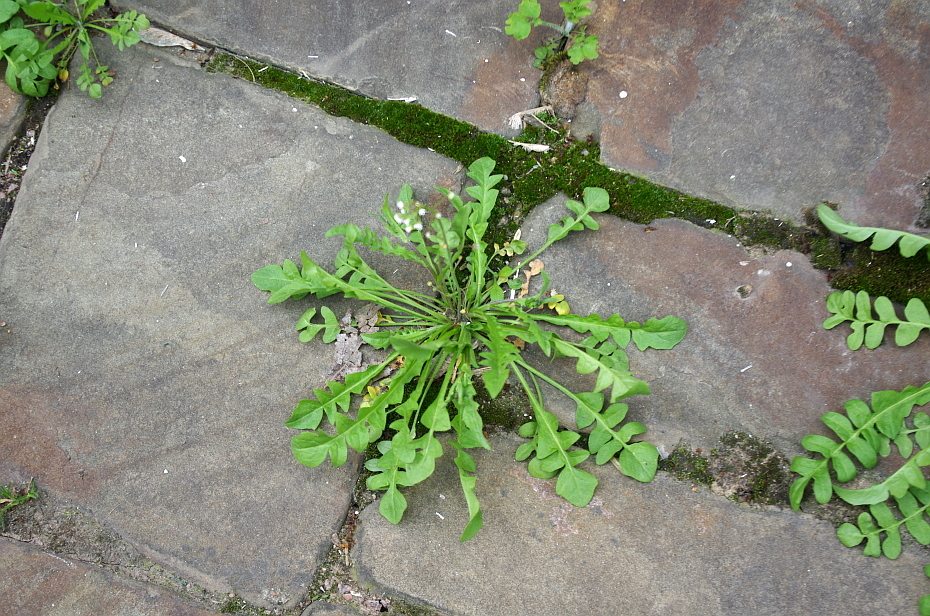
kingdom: Plantae
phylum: Tracheophyta
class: Magnoliopsida
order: Brassicales
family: Brassicaceae
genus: Capsella
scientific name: Capsella bursa-pastoris
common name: Shepherd's purse
